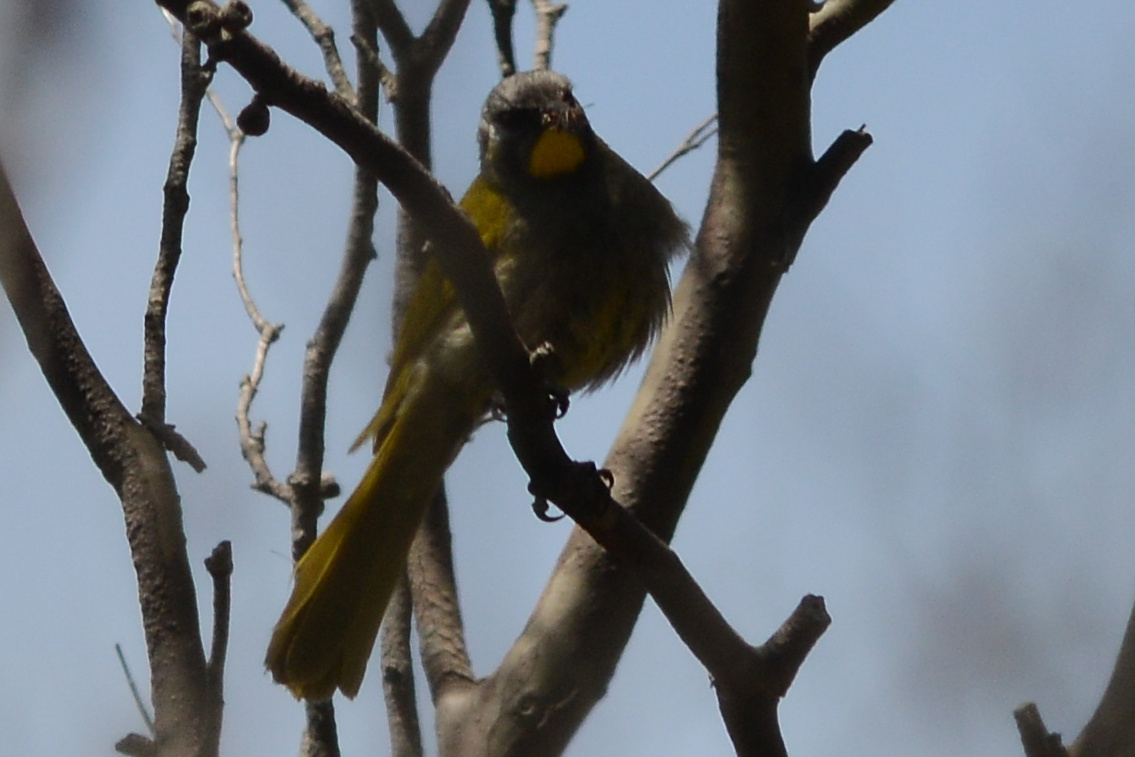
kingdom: Animalia
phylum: Chordata
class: Aves
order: Passeriformes
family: Meliphagidae
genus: Nesoptilotis
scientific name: Nesoptilotis flavicollis
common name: Yellow-throated honeyeater
